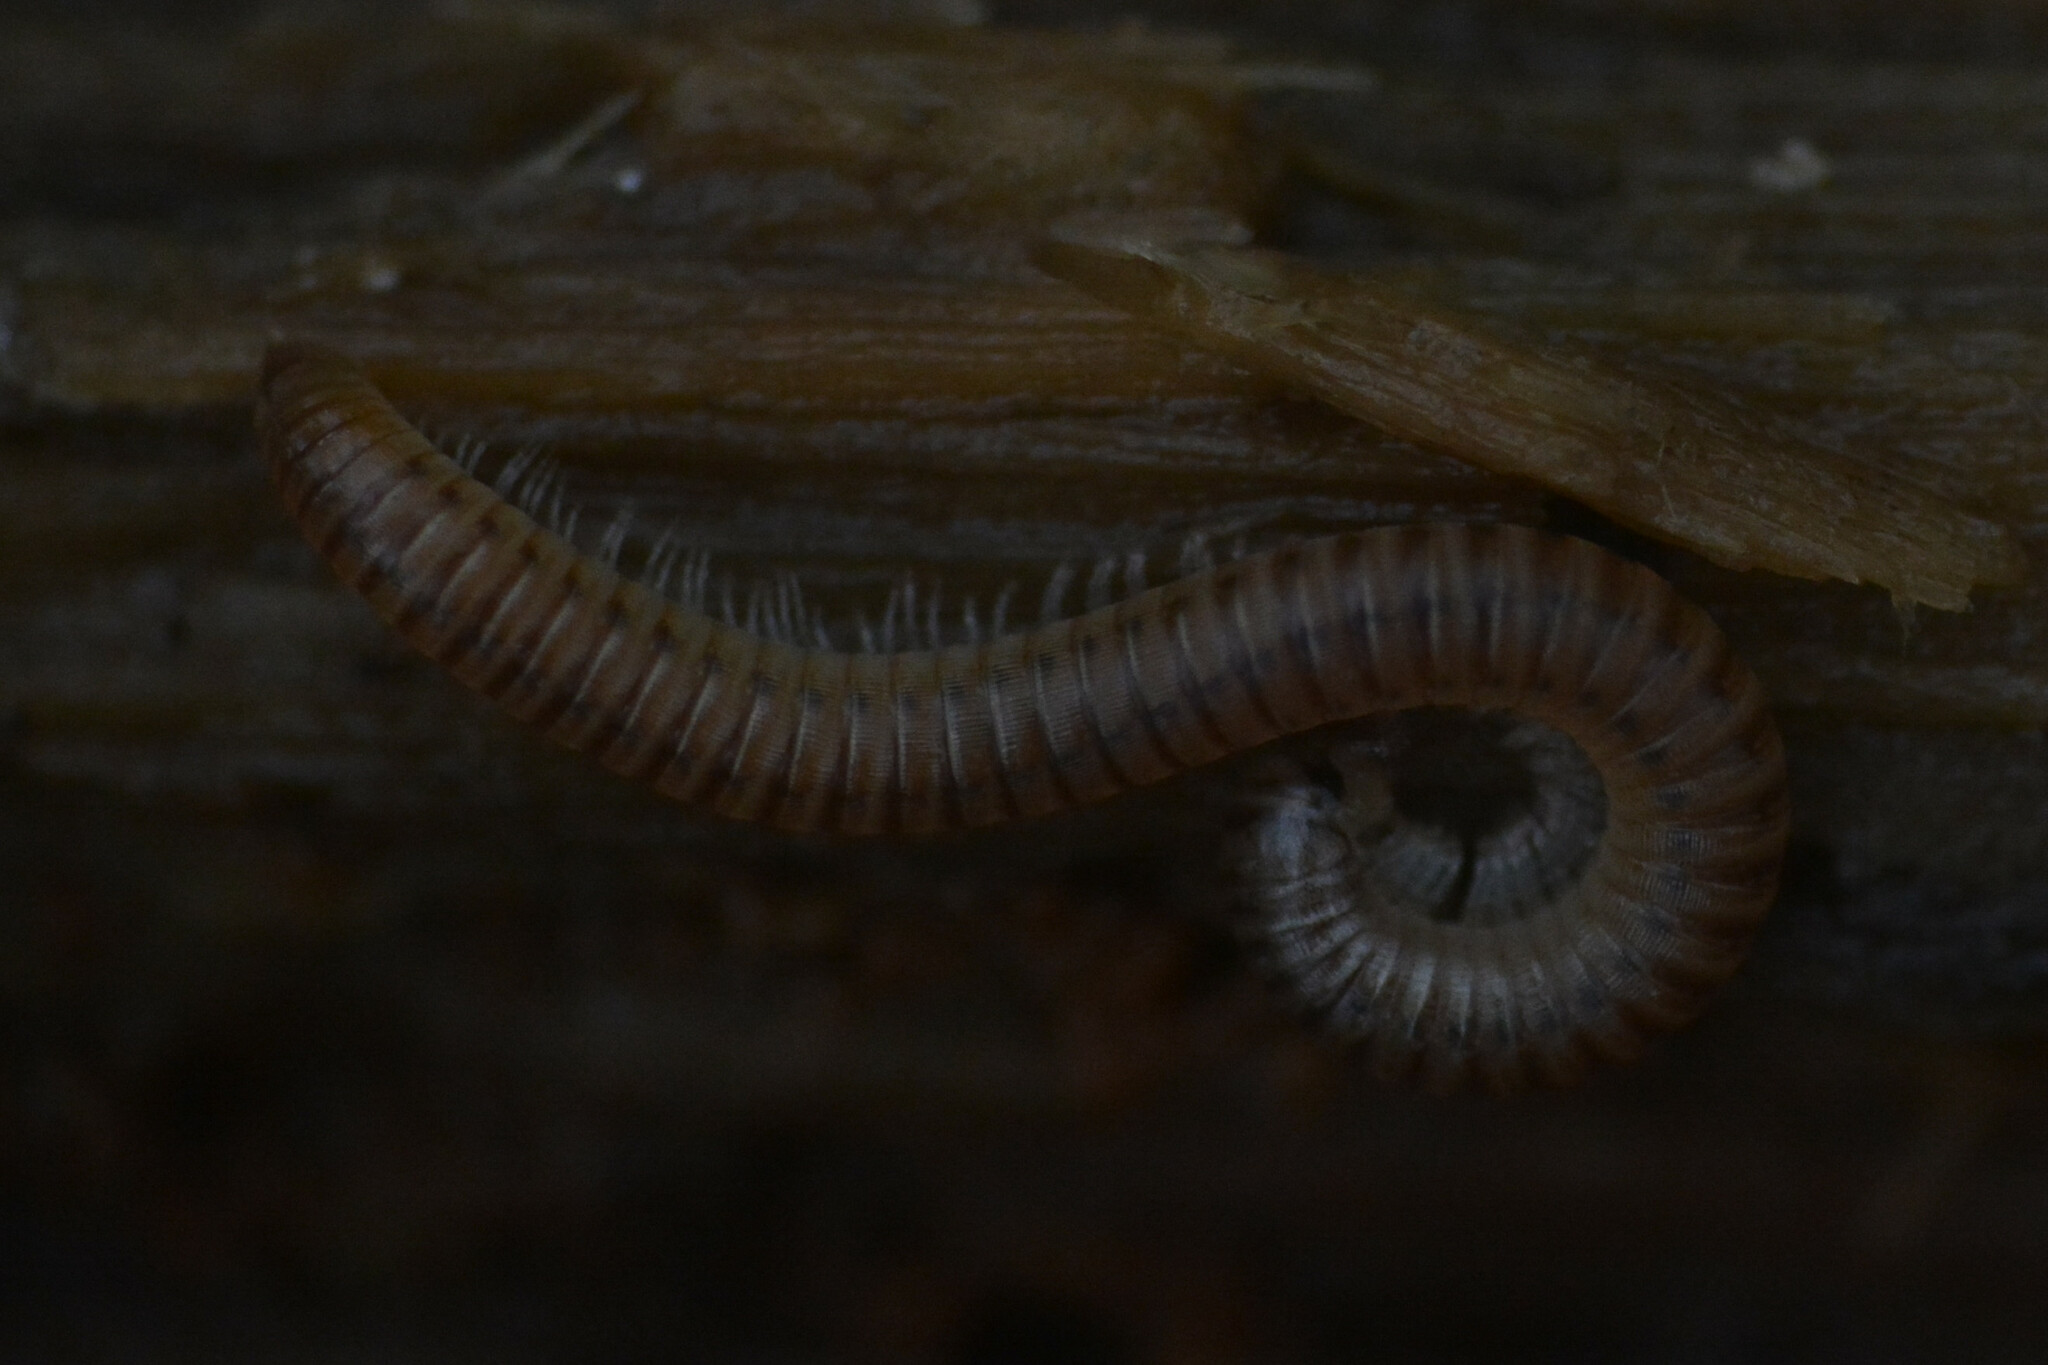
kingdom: Animalia
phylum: Arthropoda
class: Diplopoda
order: Julida
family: Julidae
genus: Cylindroiulus
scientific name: Cylindroiulus punctatus
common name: Blunt-tailed millipede
